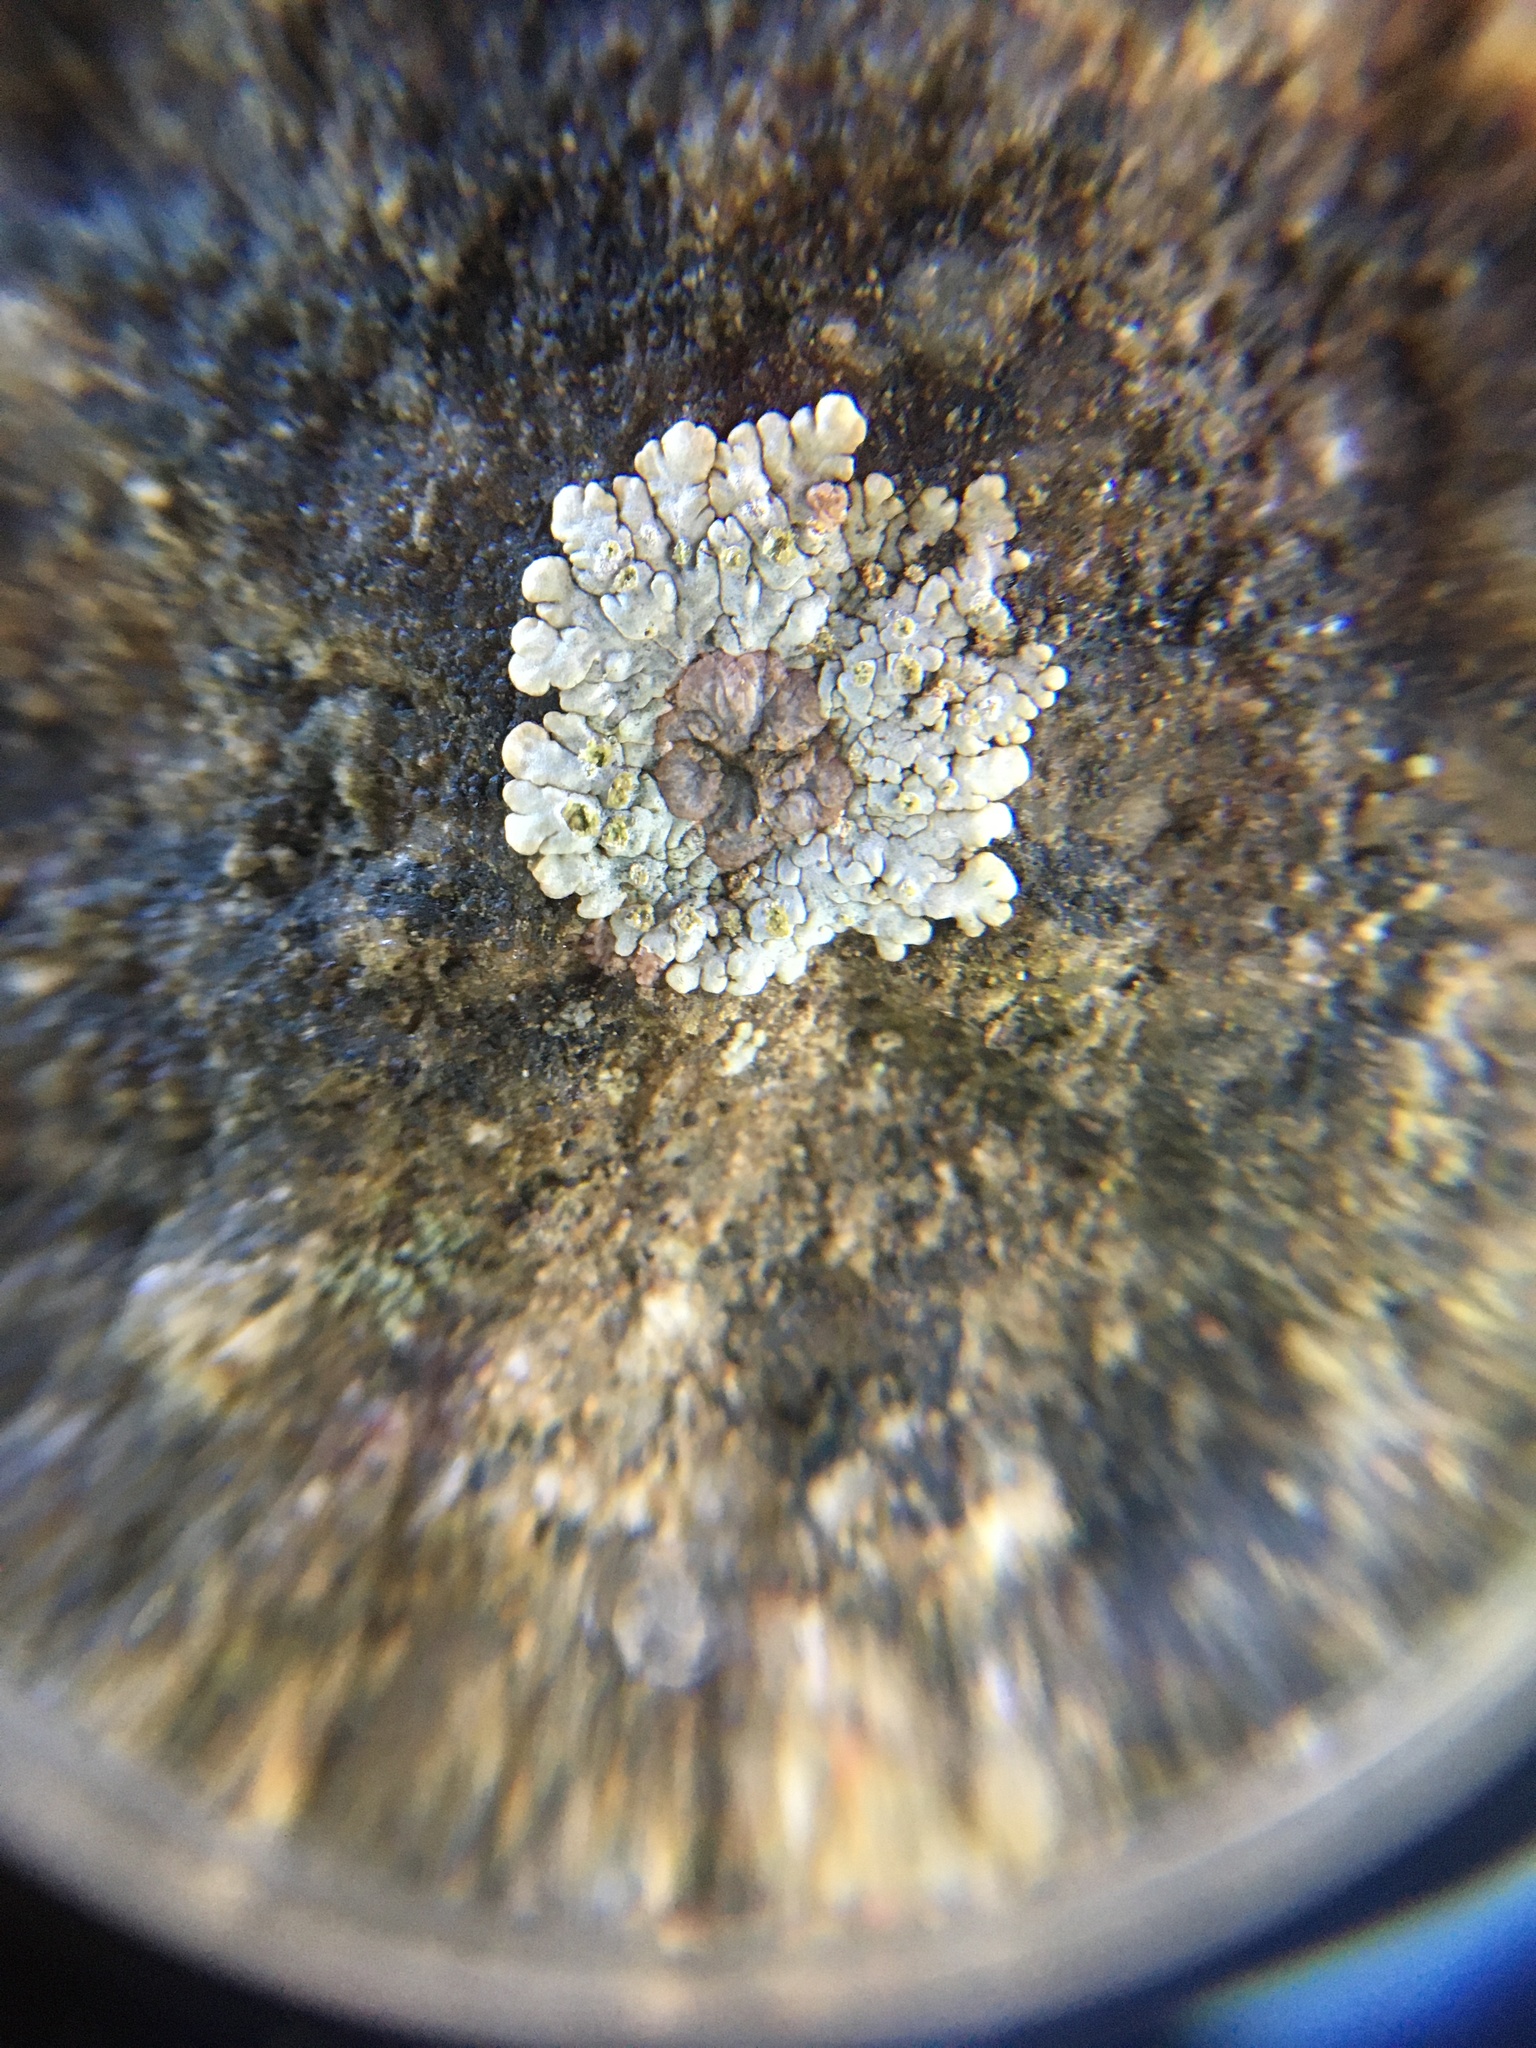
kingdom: Fungi
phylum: Ascomycota
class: Lecanoromycetes
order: Baeomycetales
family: Trapeliaceae
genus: Placopsis
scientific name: Placopsis gelida
